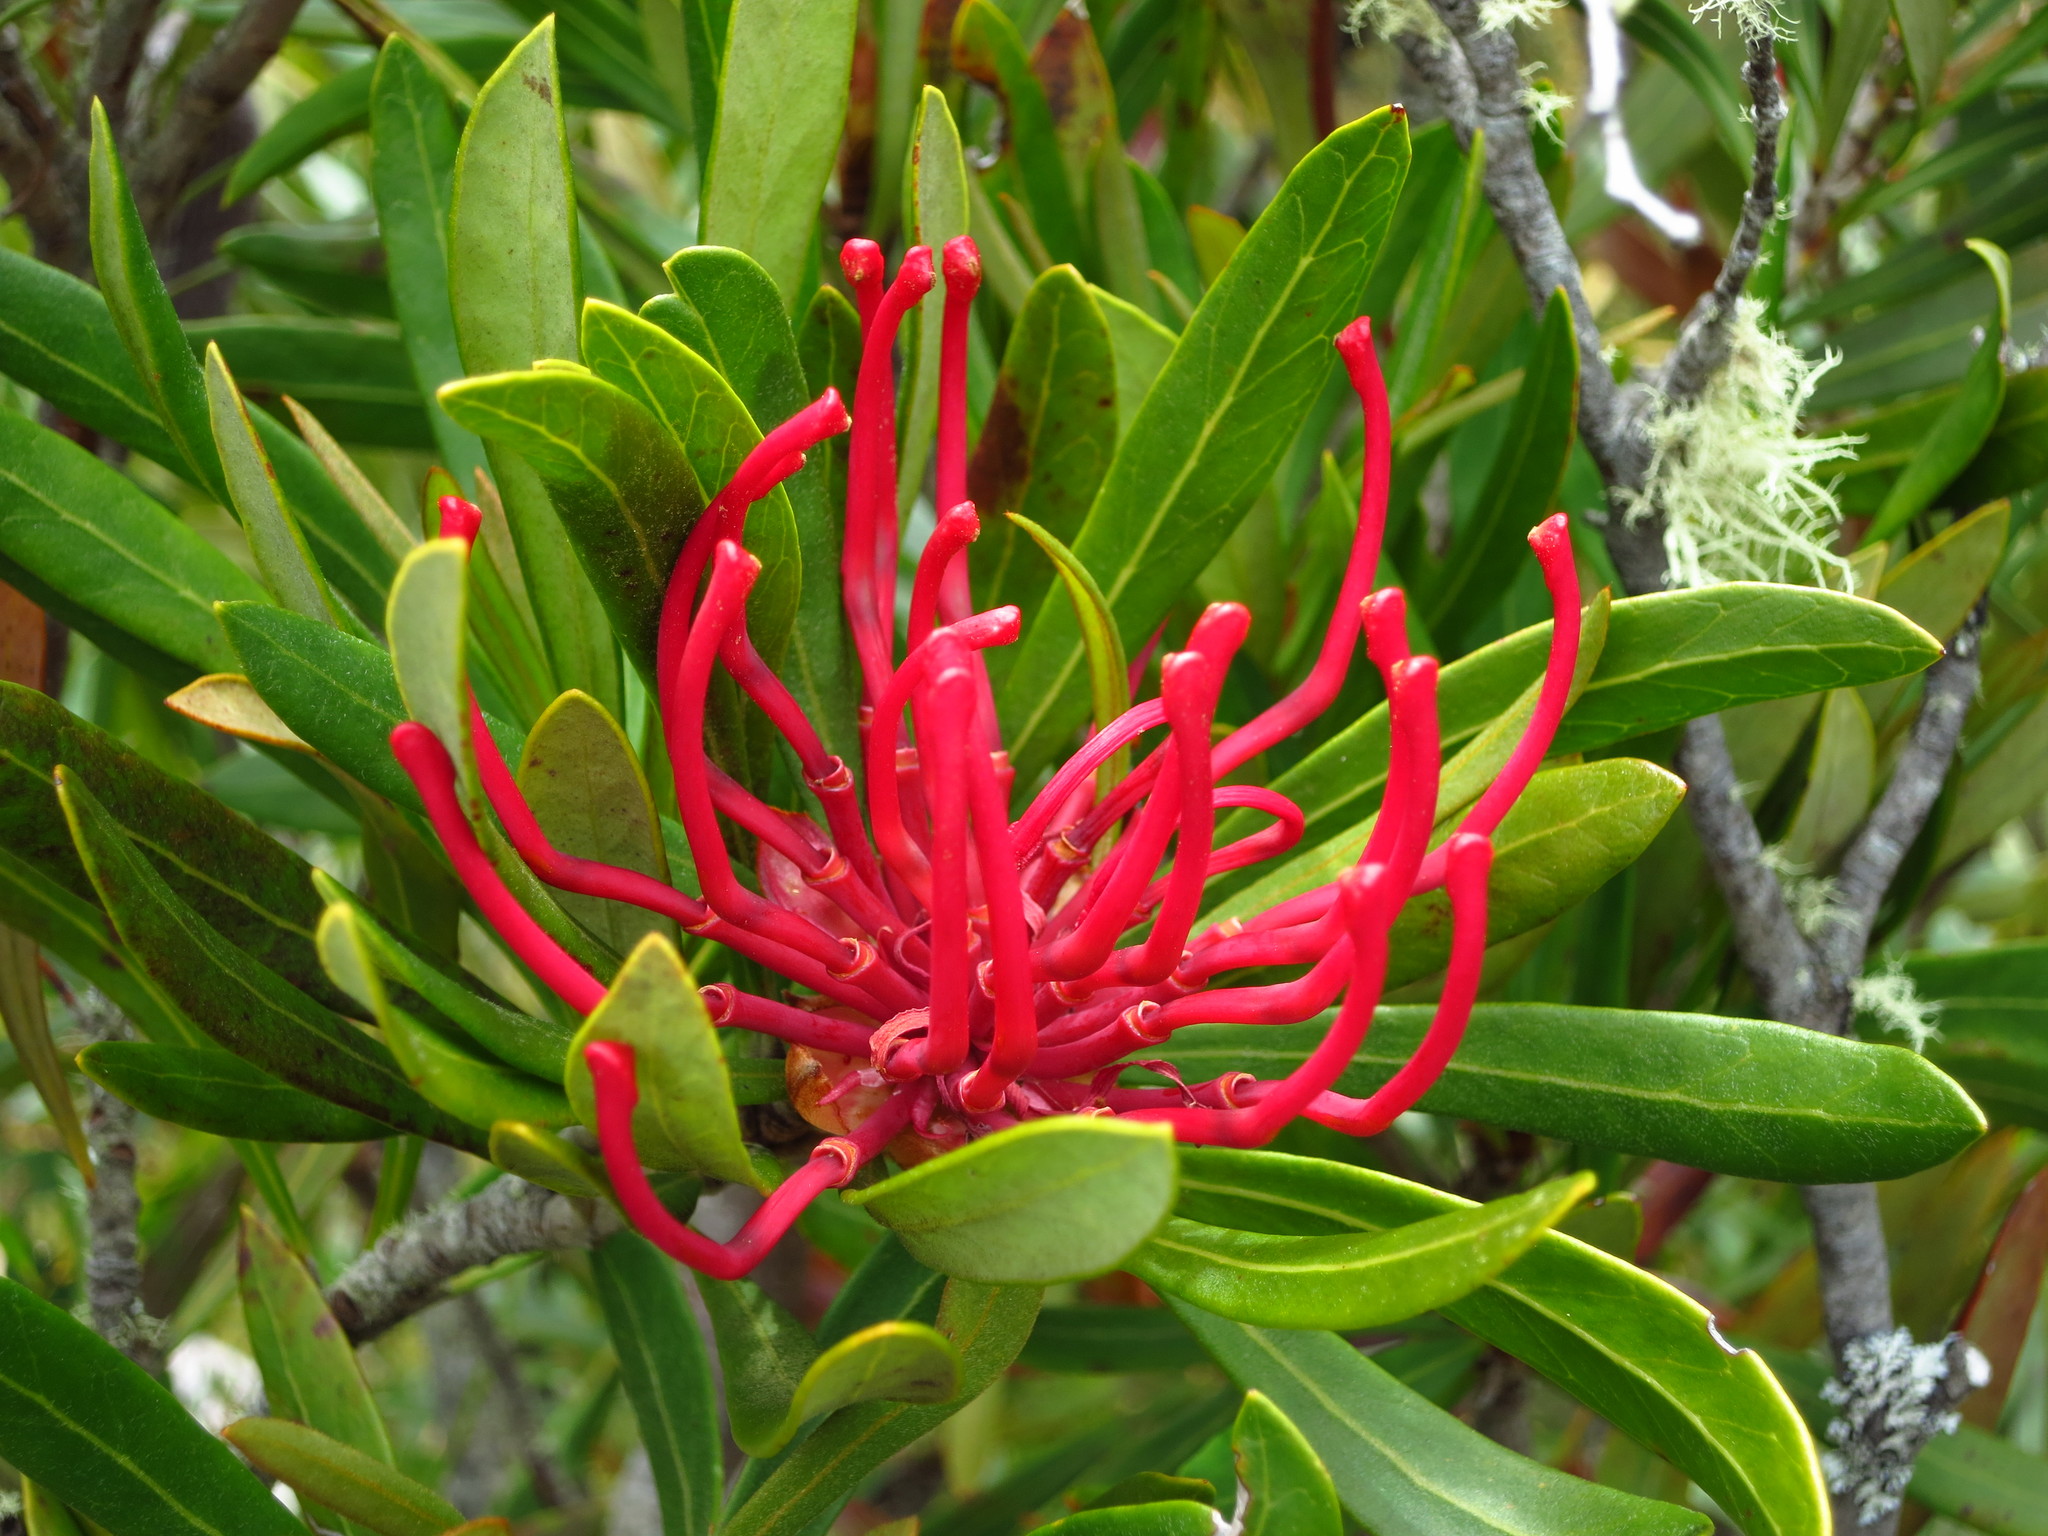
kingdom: Plantae
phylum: Tracheophyta
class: Magnoliopsida
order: Proteales
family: Proteaceae
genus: Telopea
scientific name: Telopea truncata
